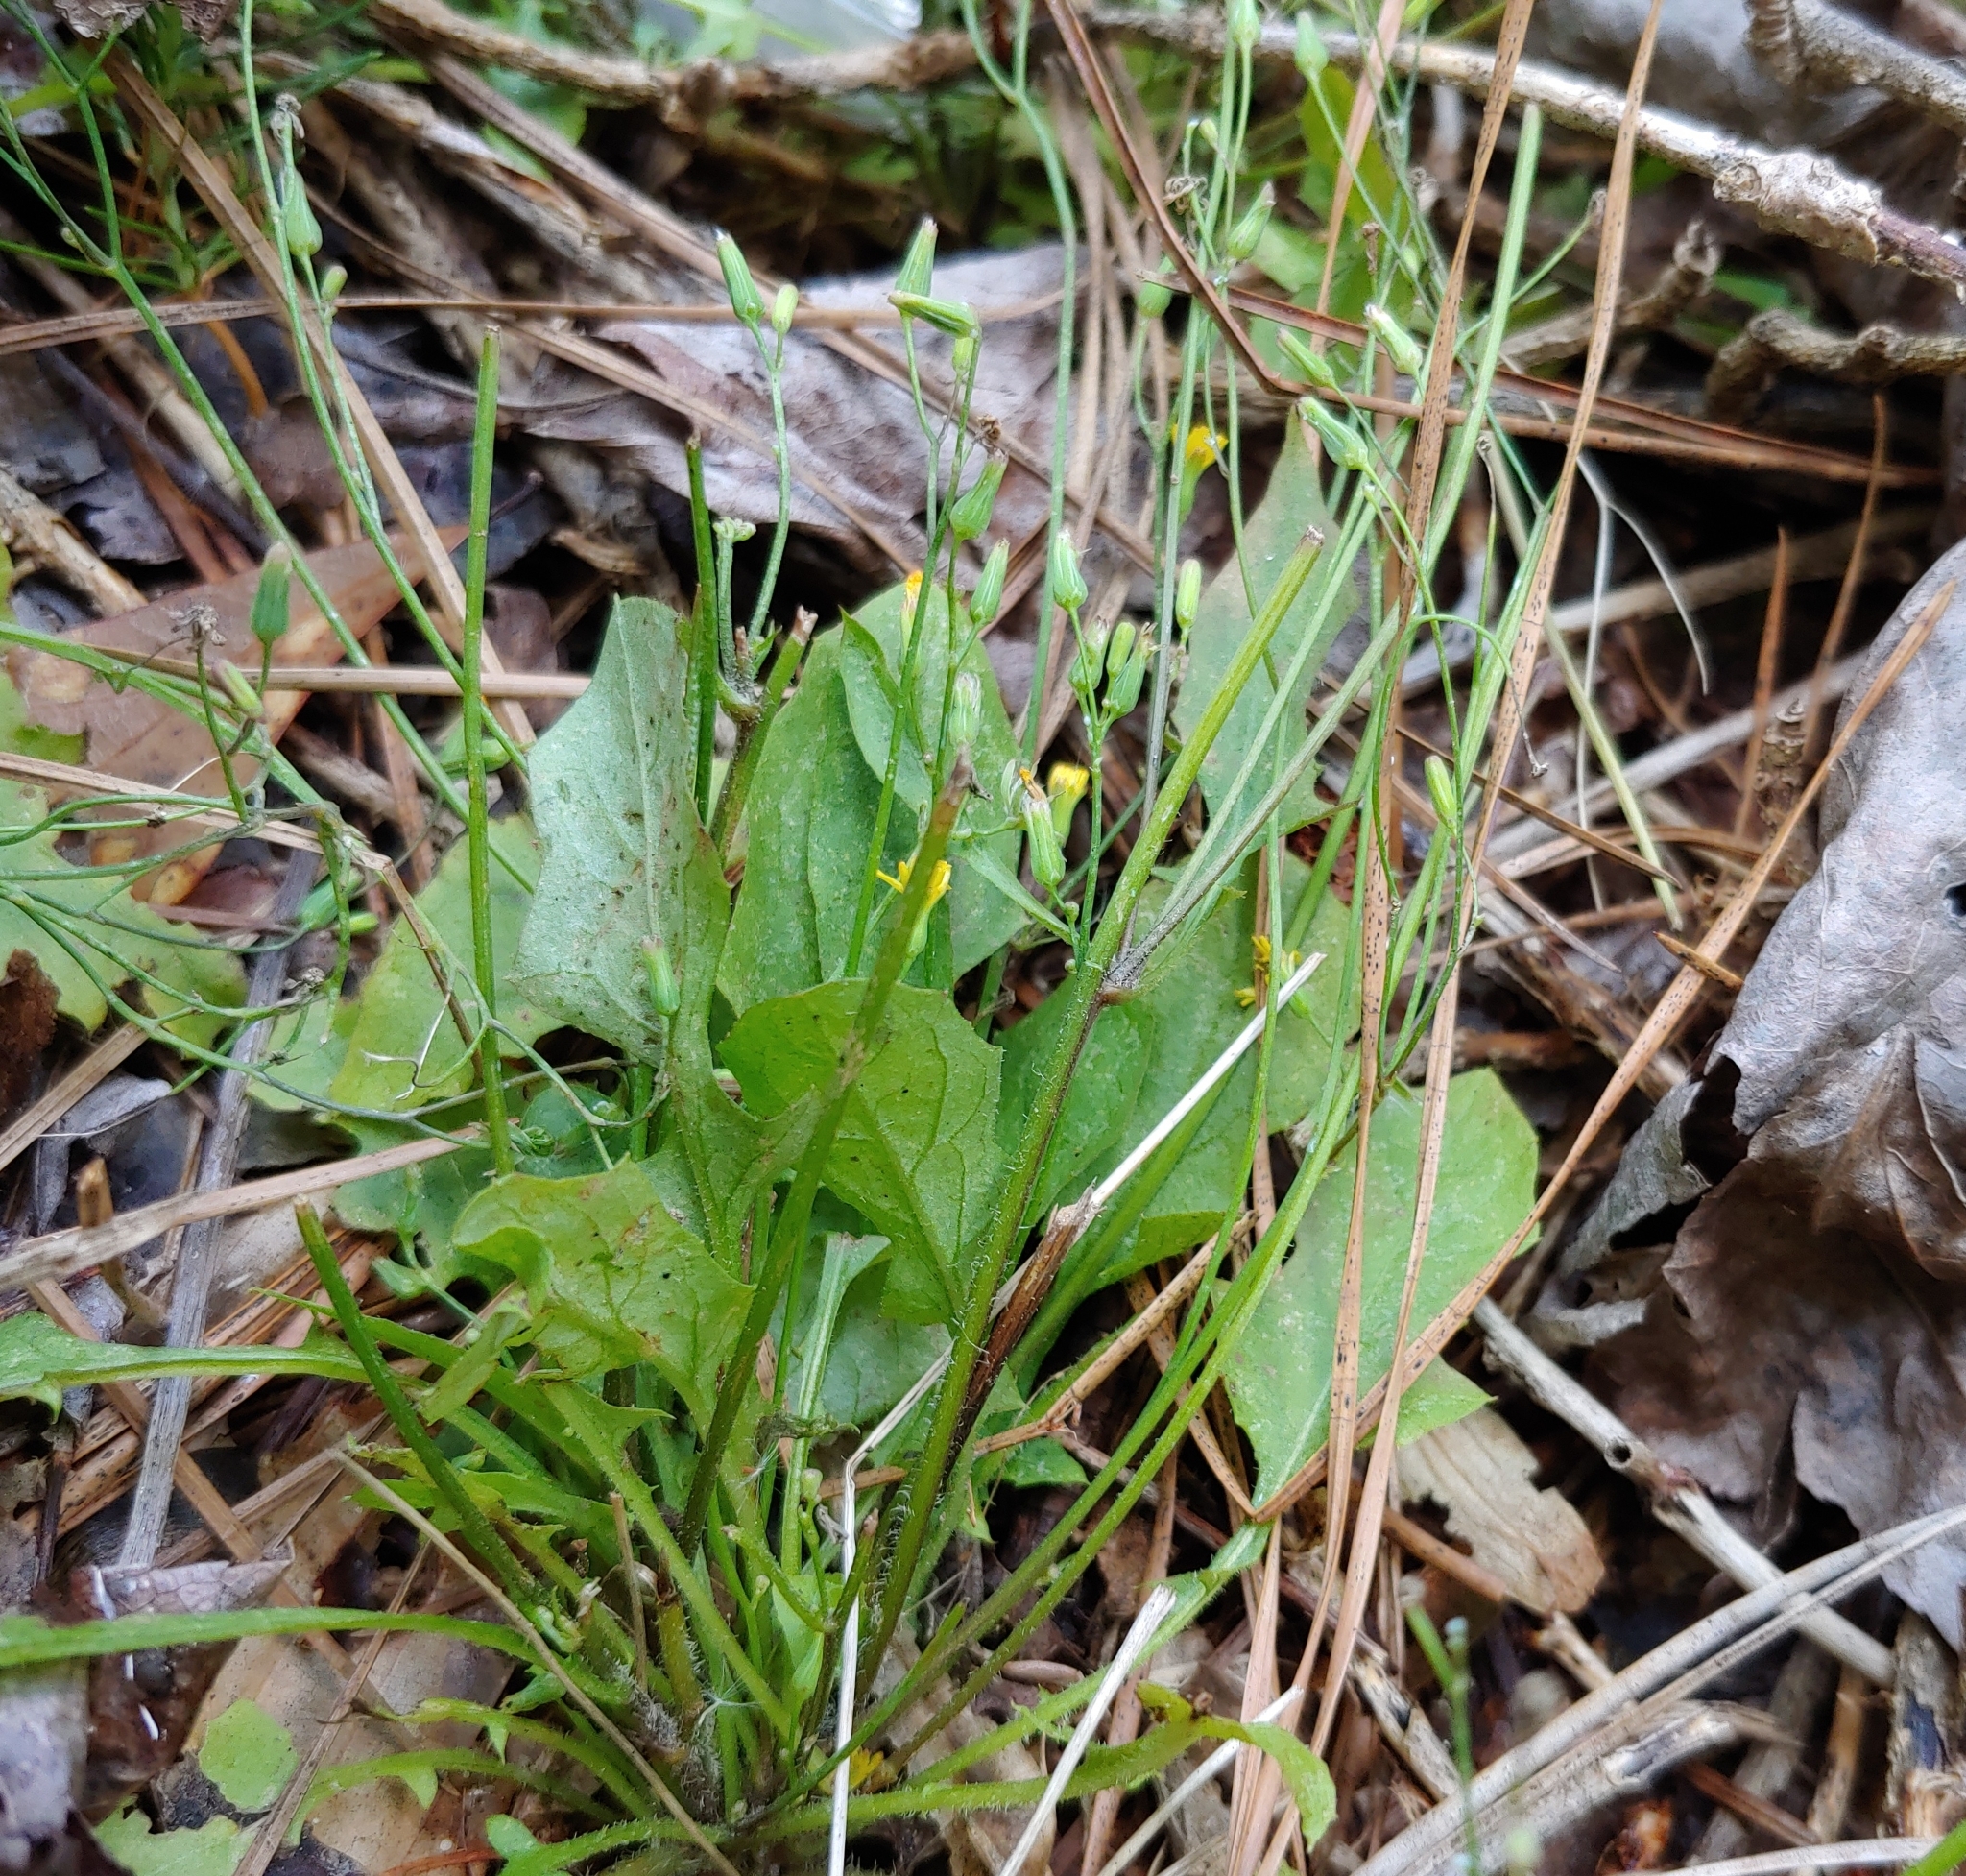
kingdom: Plantae
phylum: Tracheophyta
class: Magnoliopsida
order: Asterales
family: Asteraceae
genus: Lactuca
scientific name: Lactuca hirsuta
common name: Hairy lettuce
